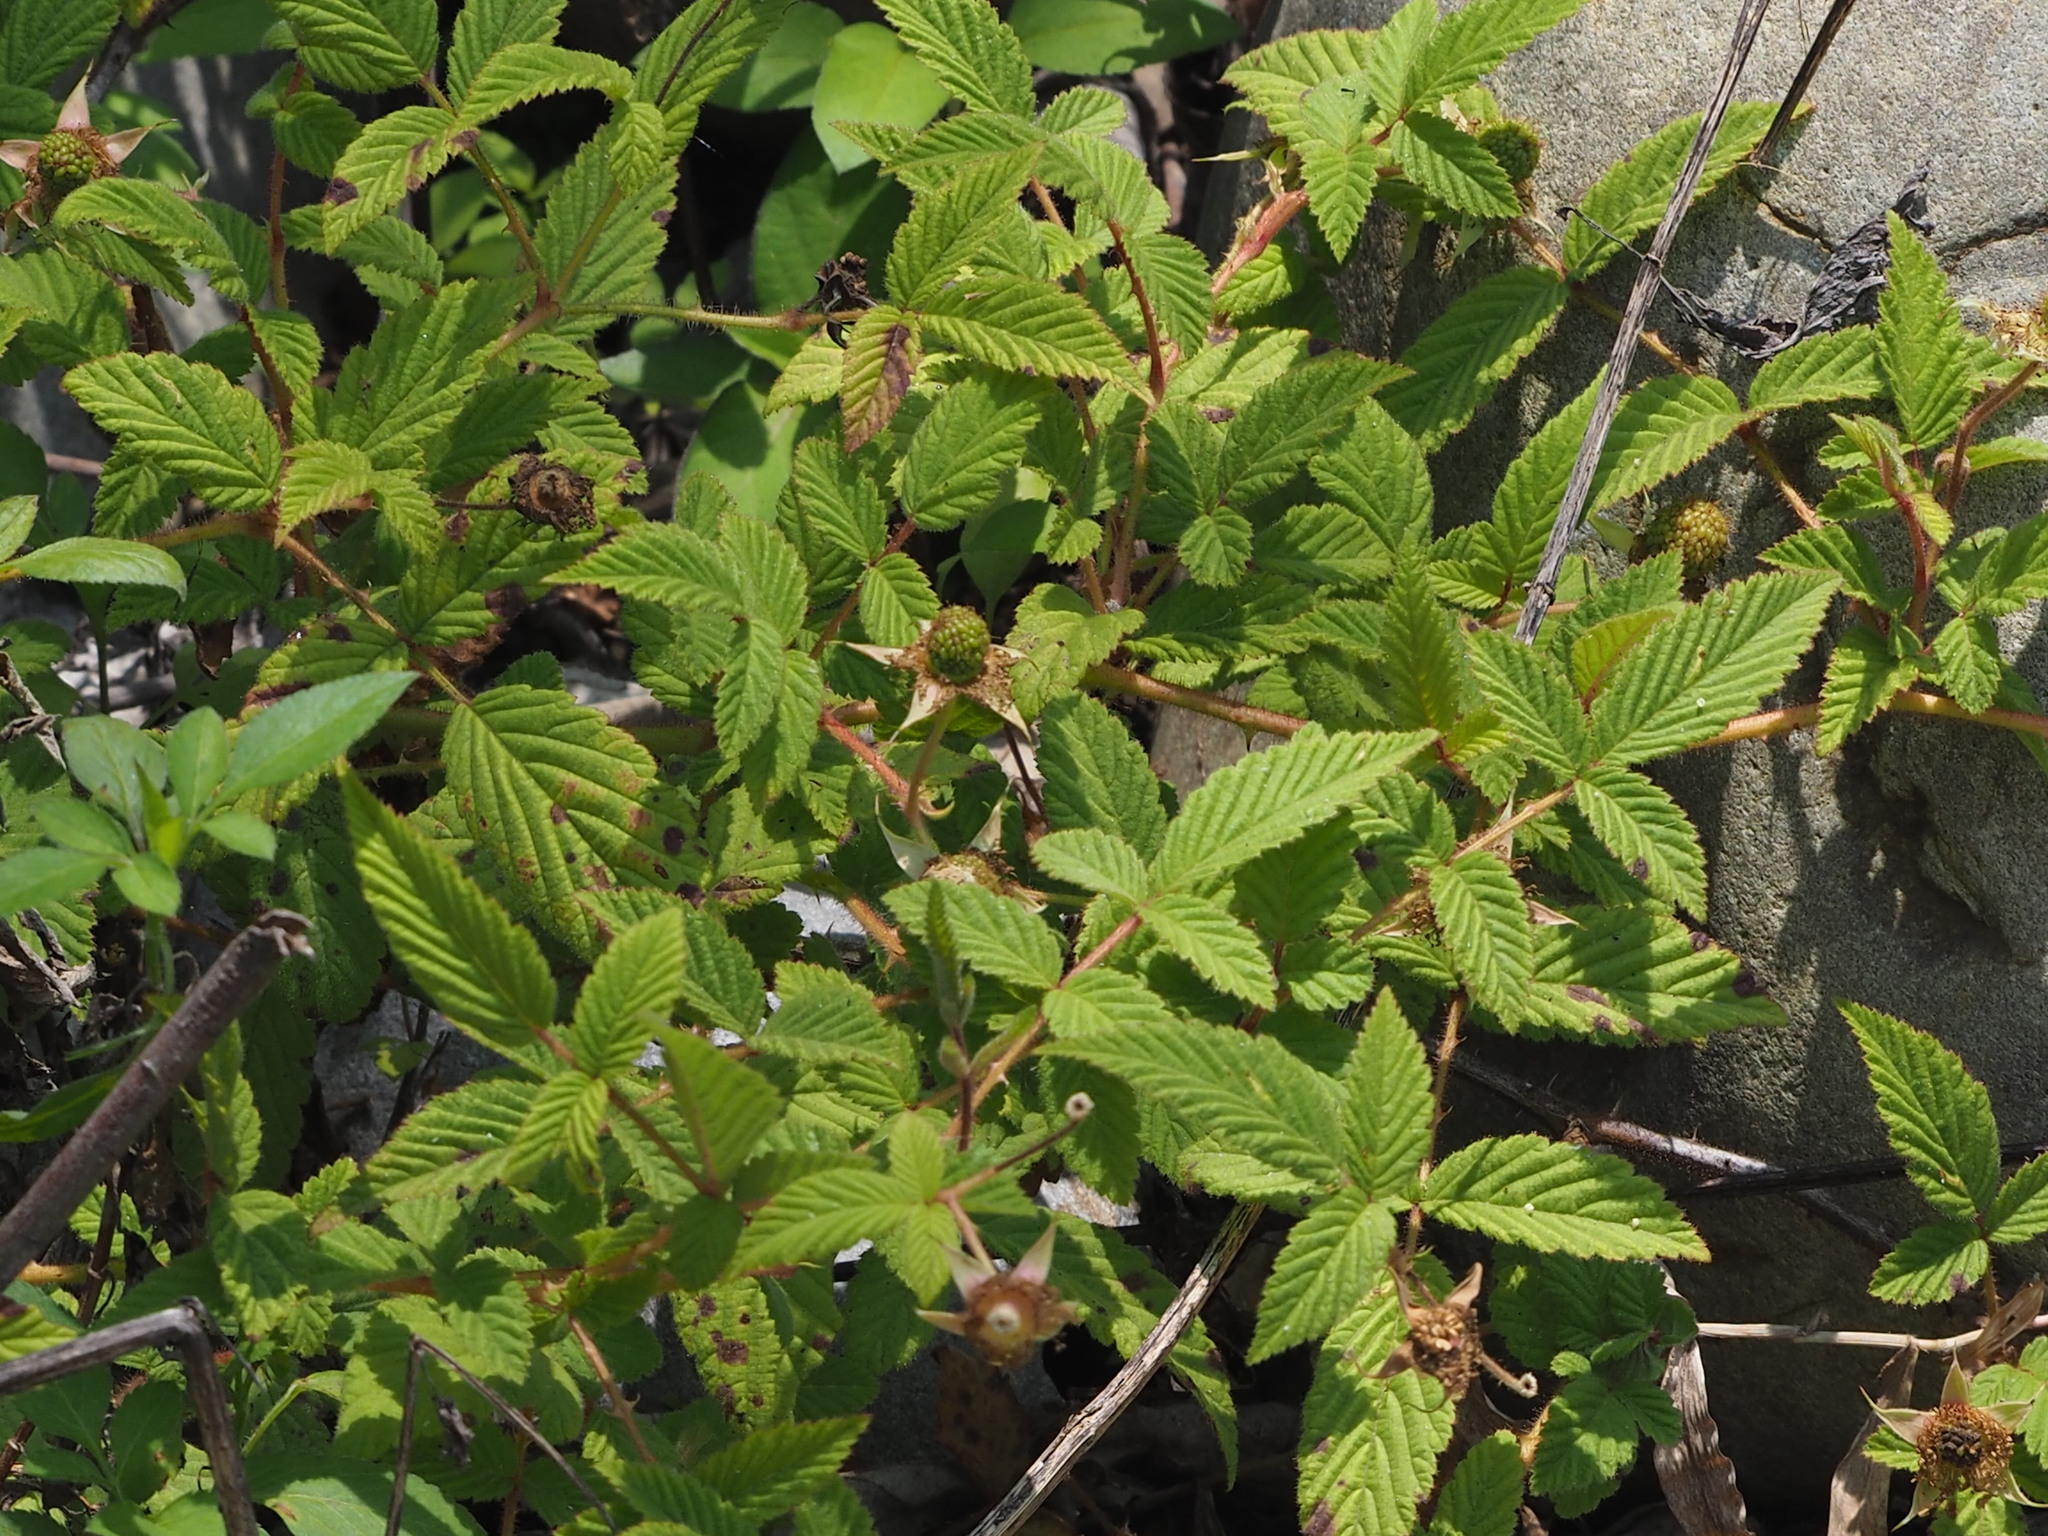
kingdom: Plantae
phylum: Tracheophyta
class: Magnoliopsida
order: Rosales
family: Rosaceae
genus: Rubus
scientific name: Rubus croceacanthus
